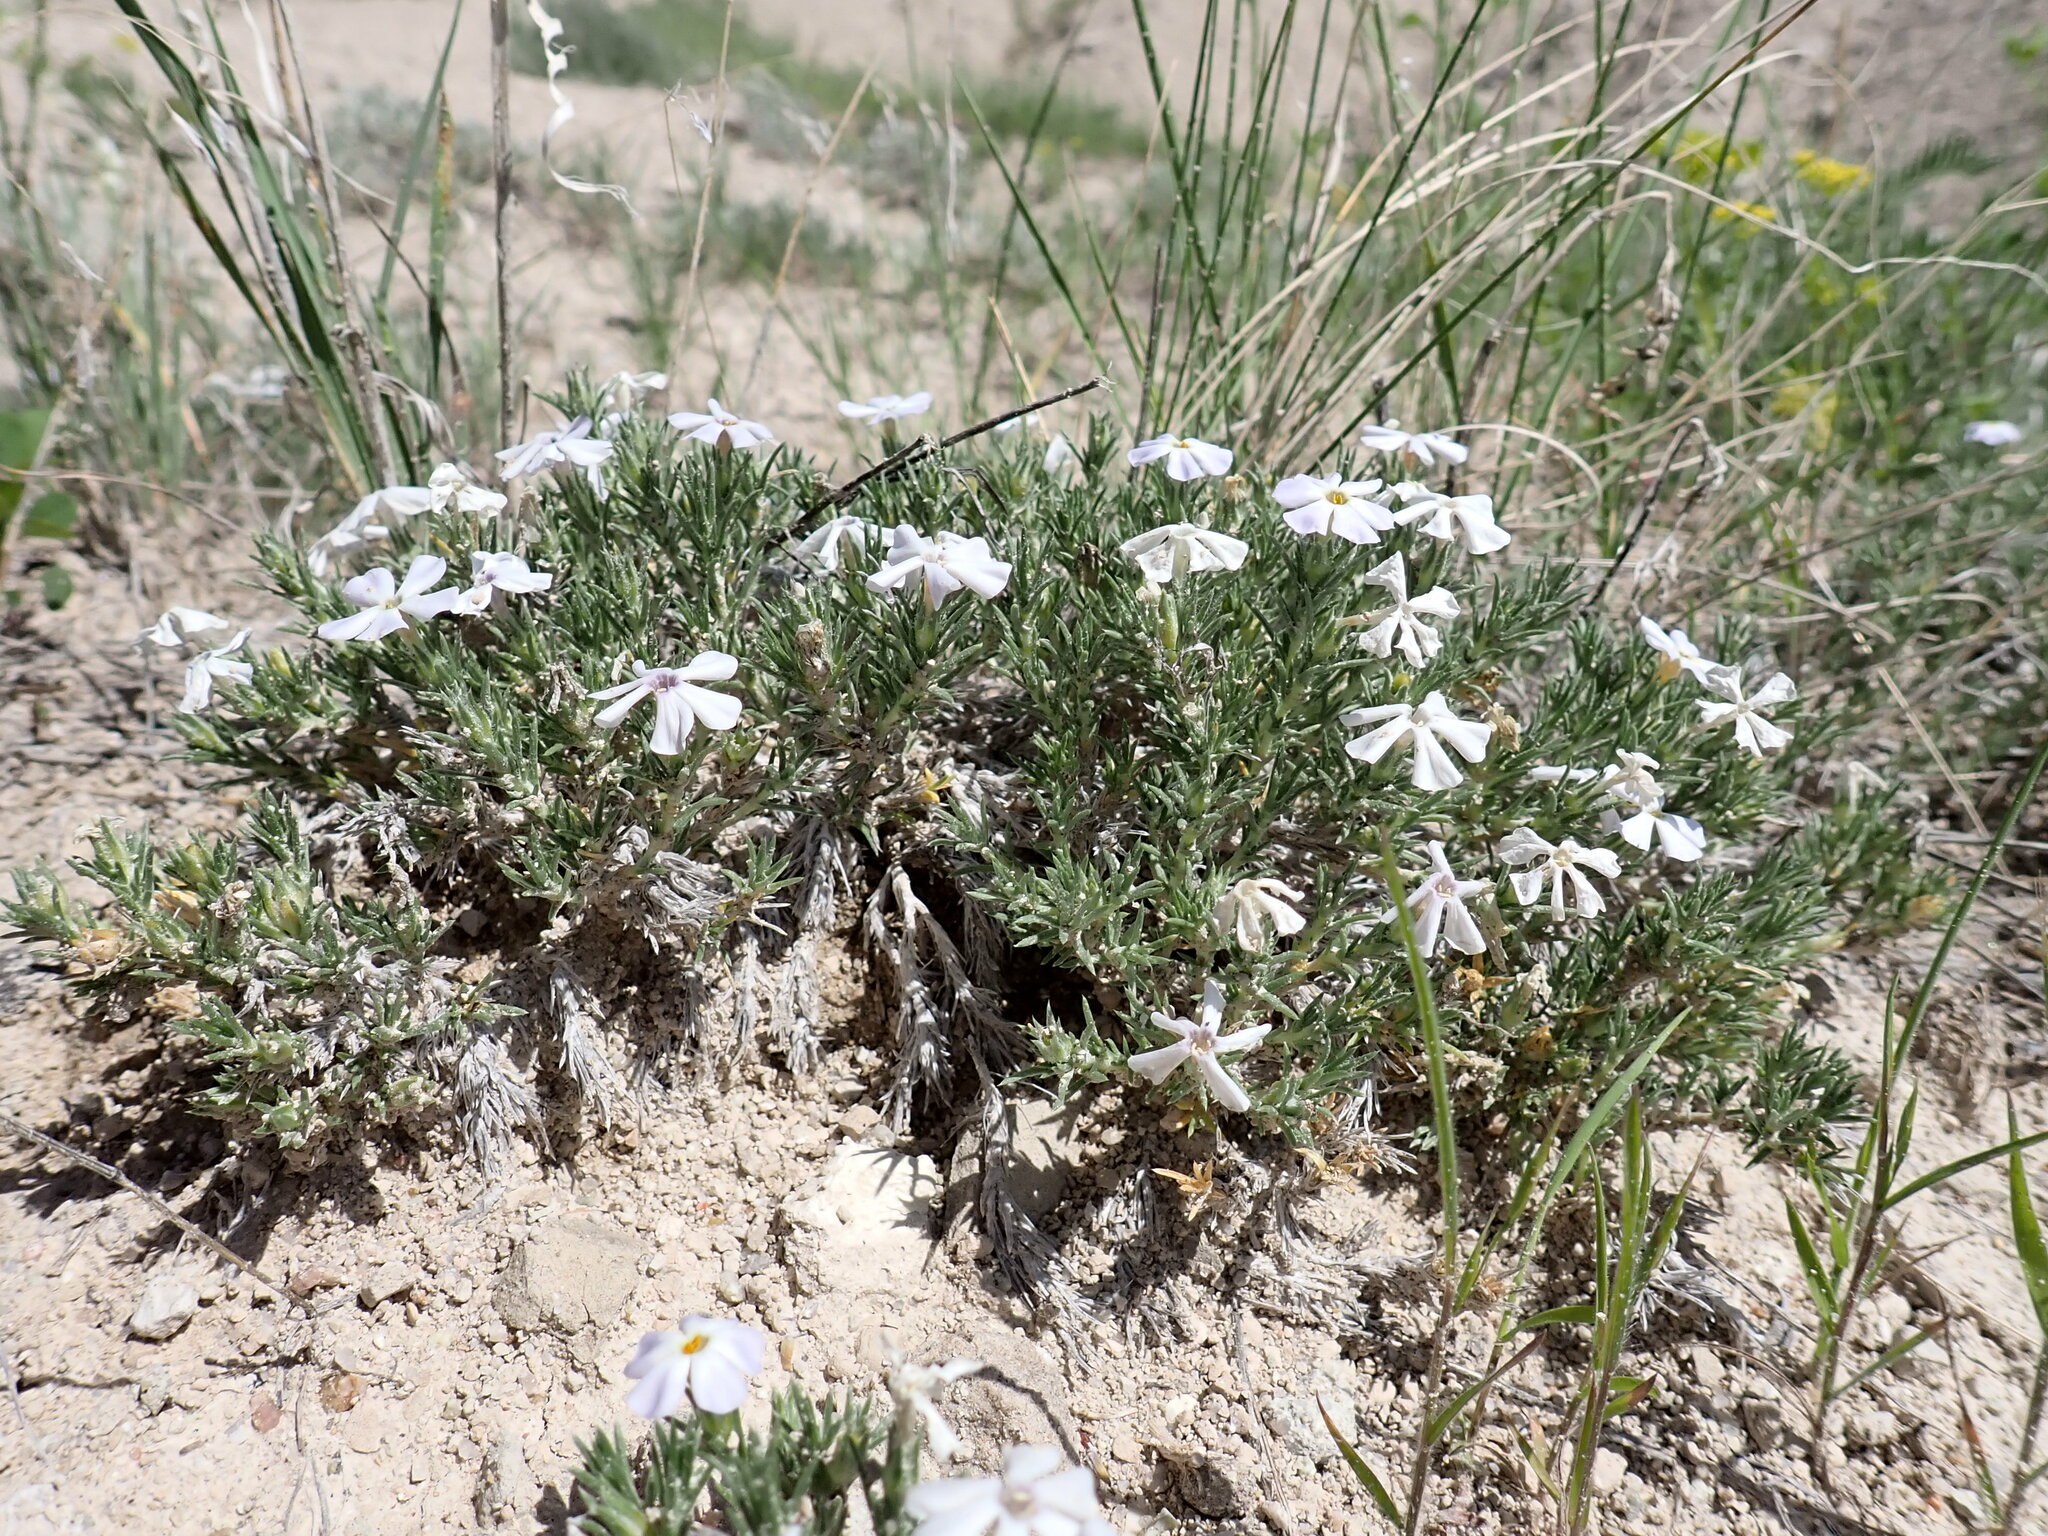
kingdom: Plantae
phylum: Tracheophyta
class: Magnoliopsida
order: Ericales
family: Polemoniaceae
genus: Phlox
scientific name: Phlox hoodii
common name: Moss phlox
